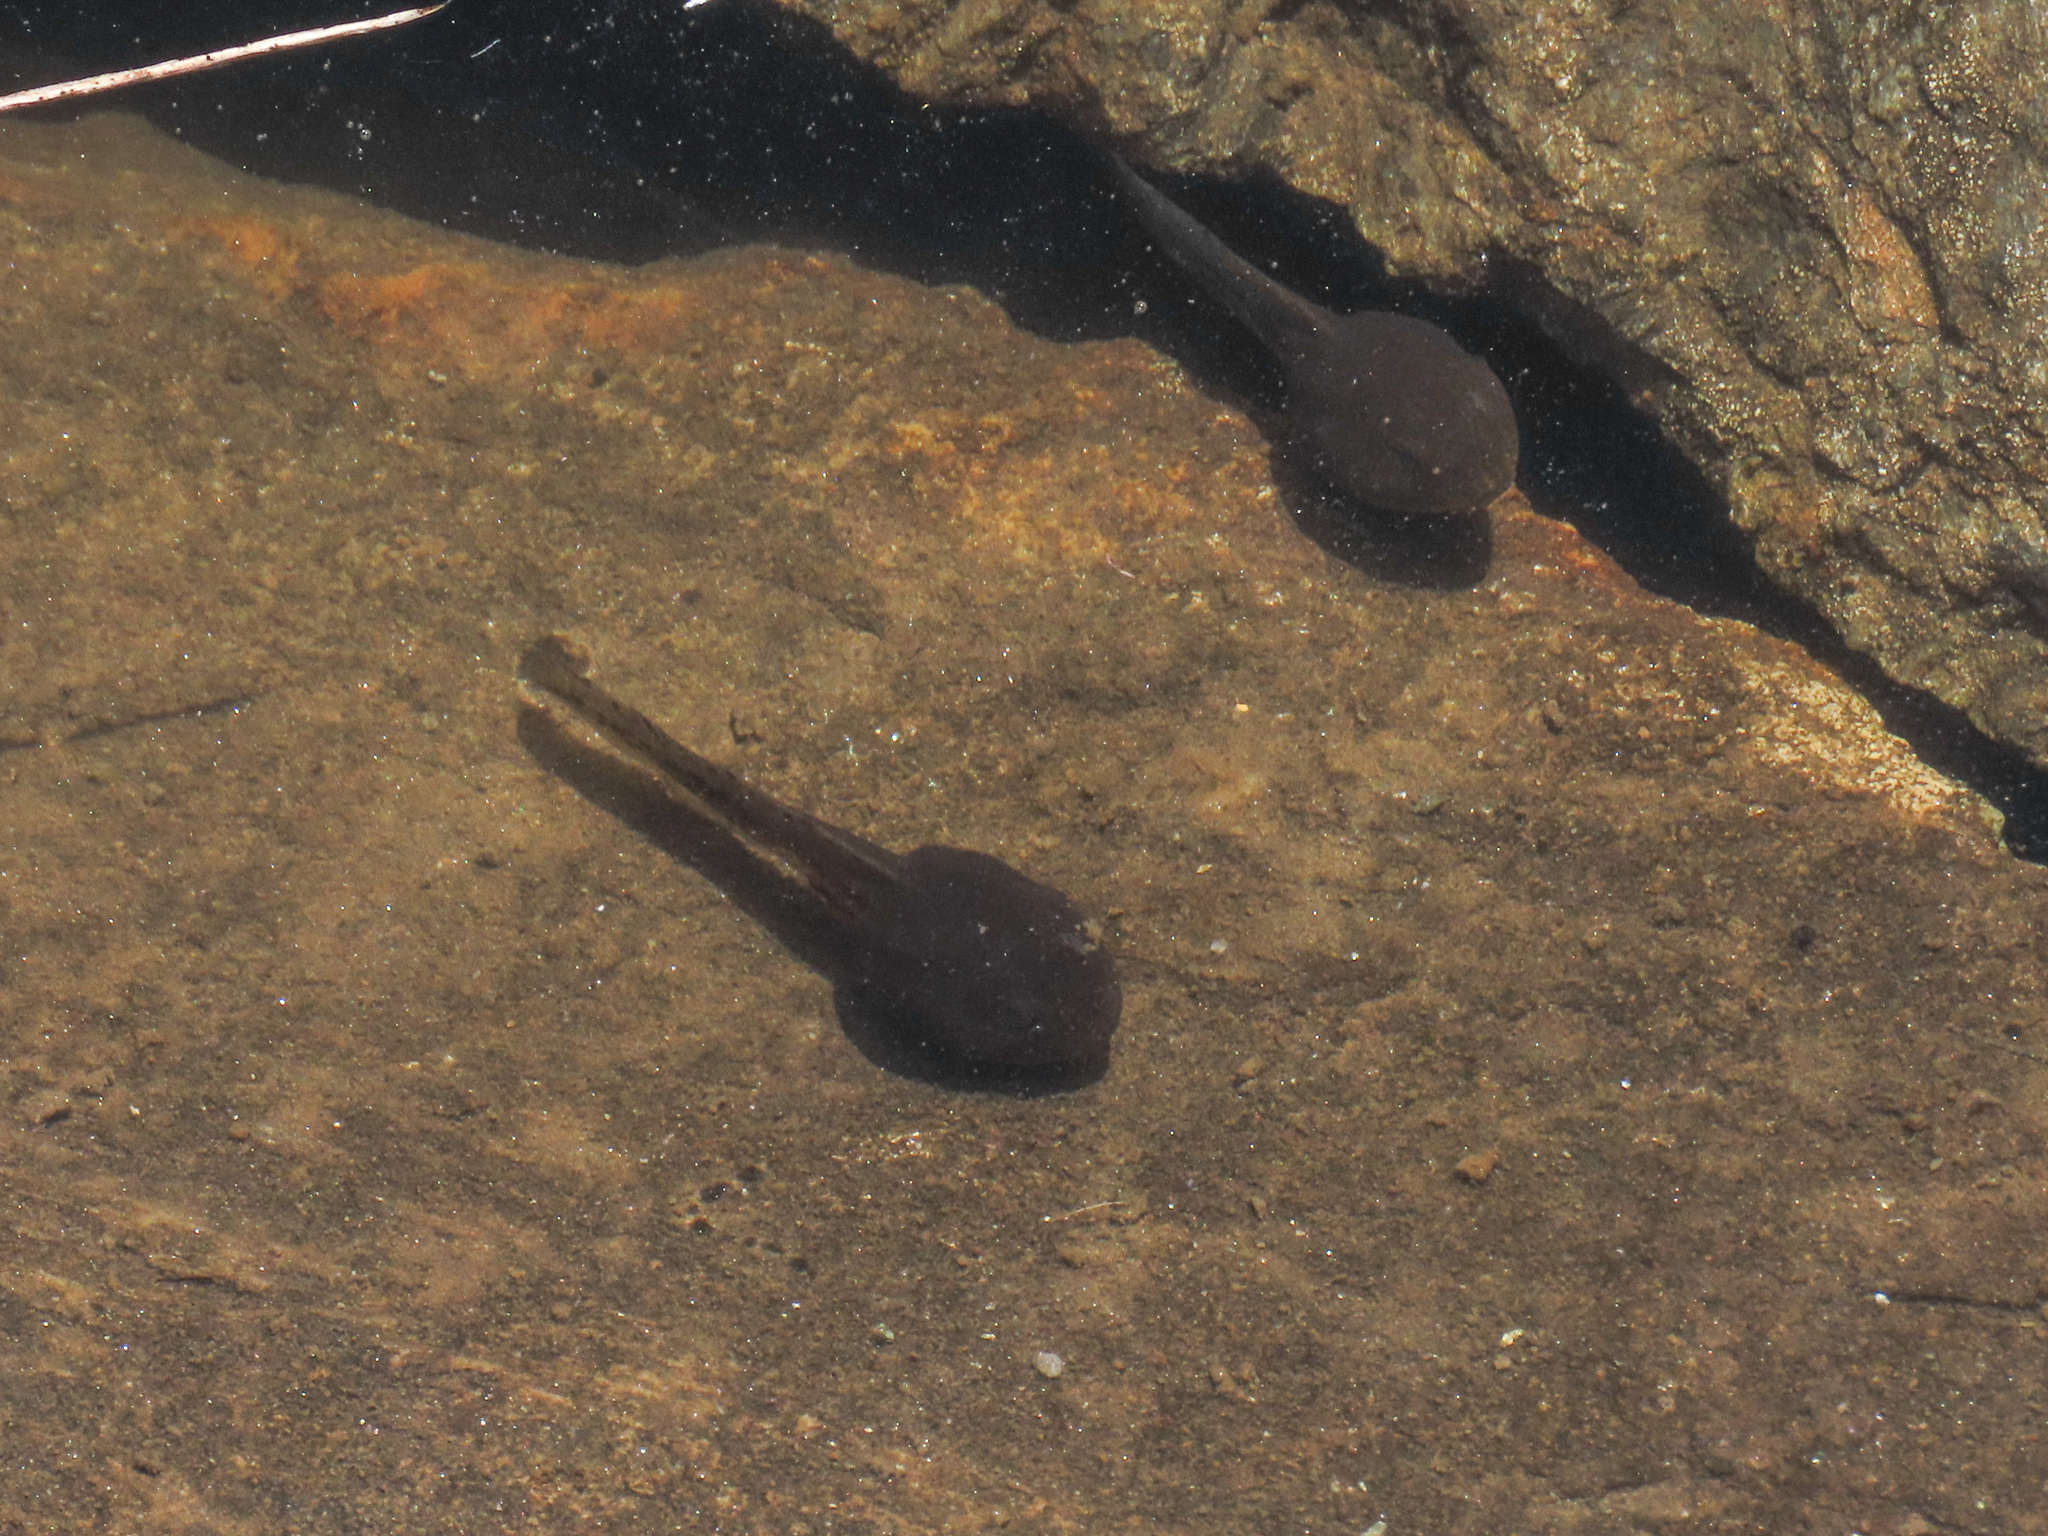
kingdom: Animalia
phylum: Chordata
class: Amphibia
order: Anura
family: Ranidae
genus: Rana
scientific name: Rana temporaria
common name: Common frog
